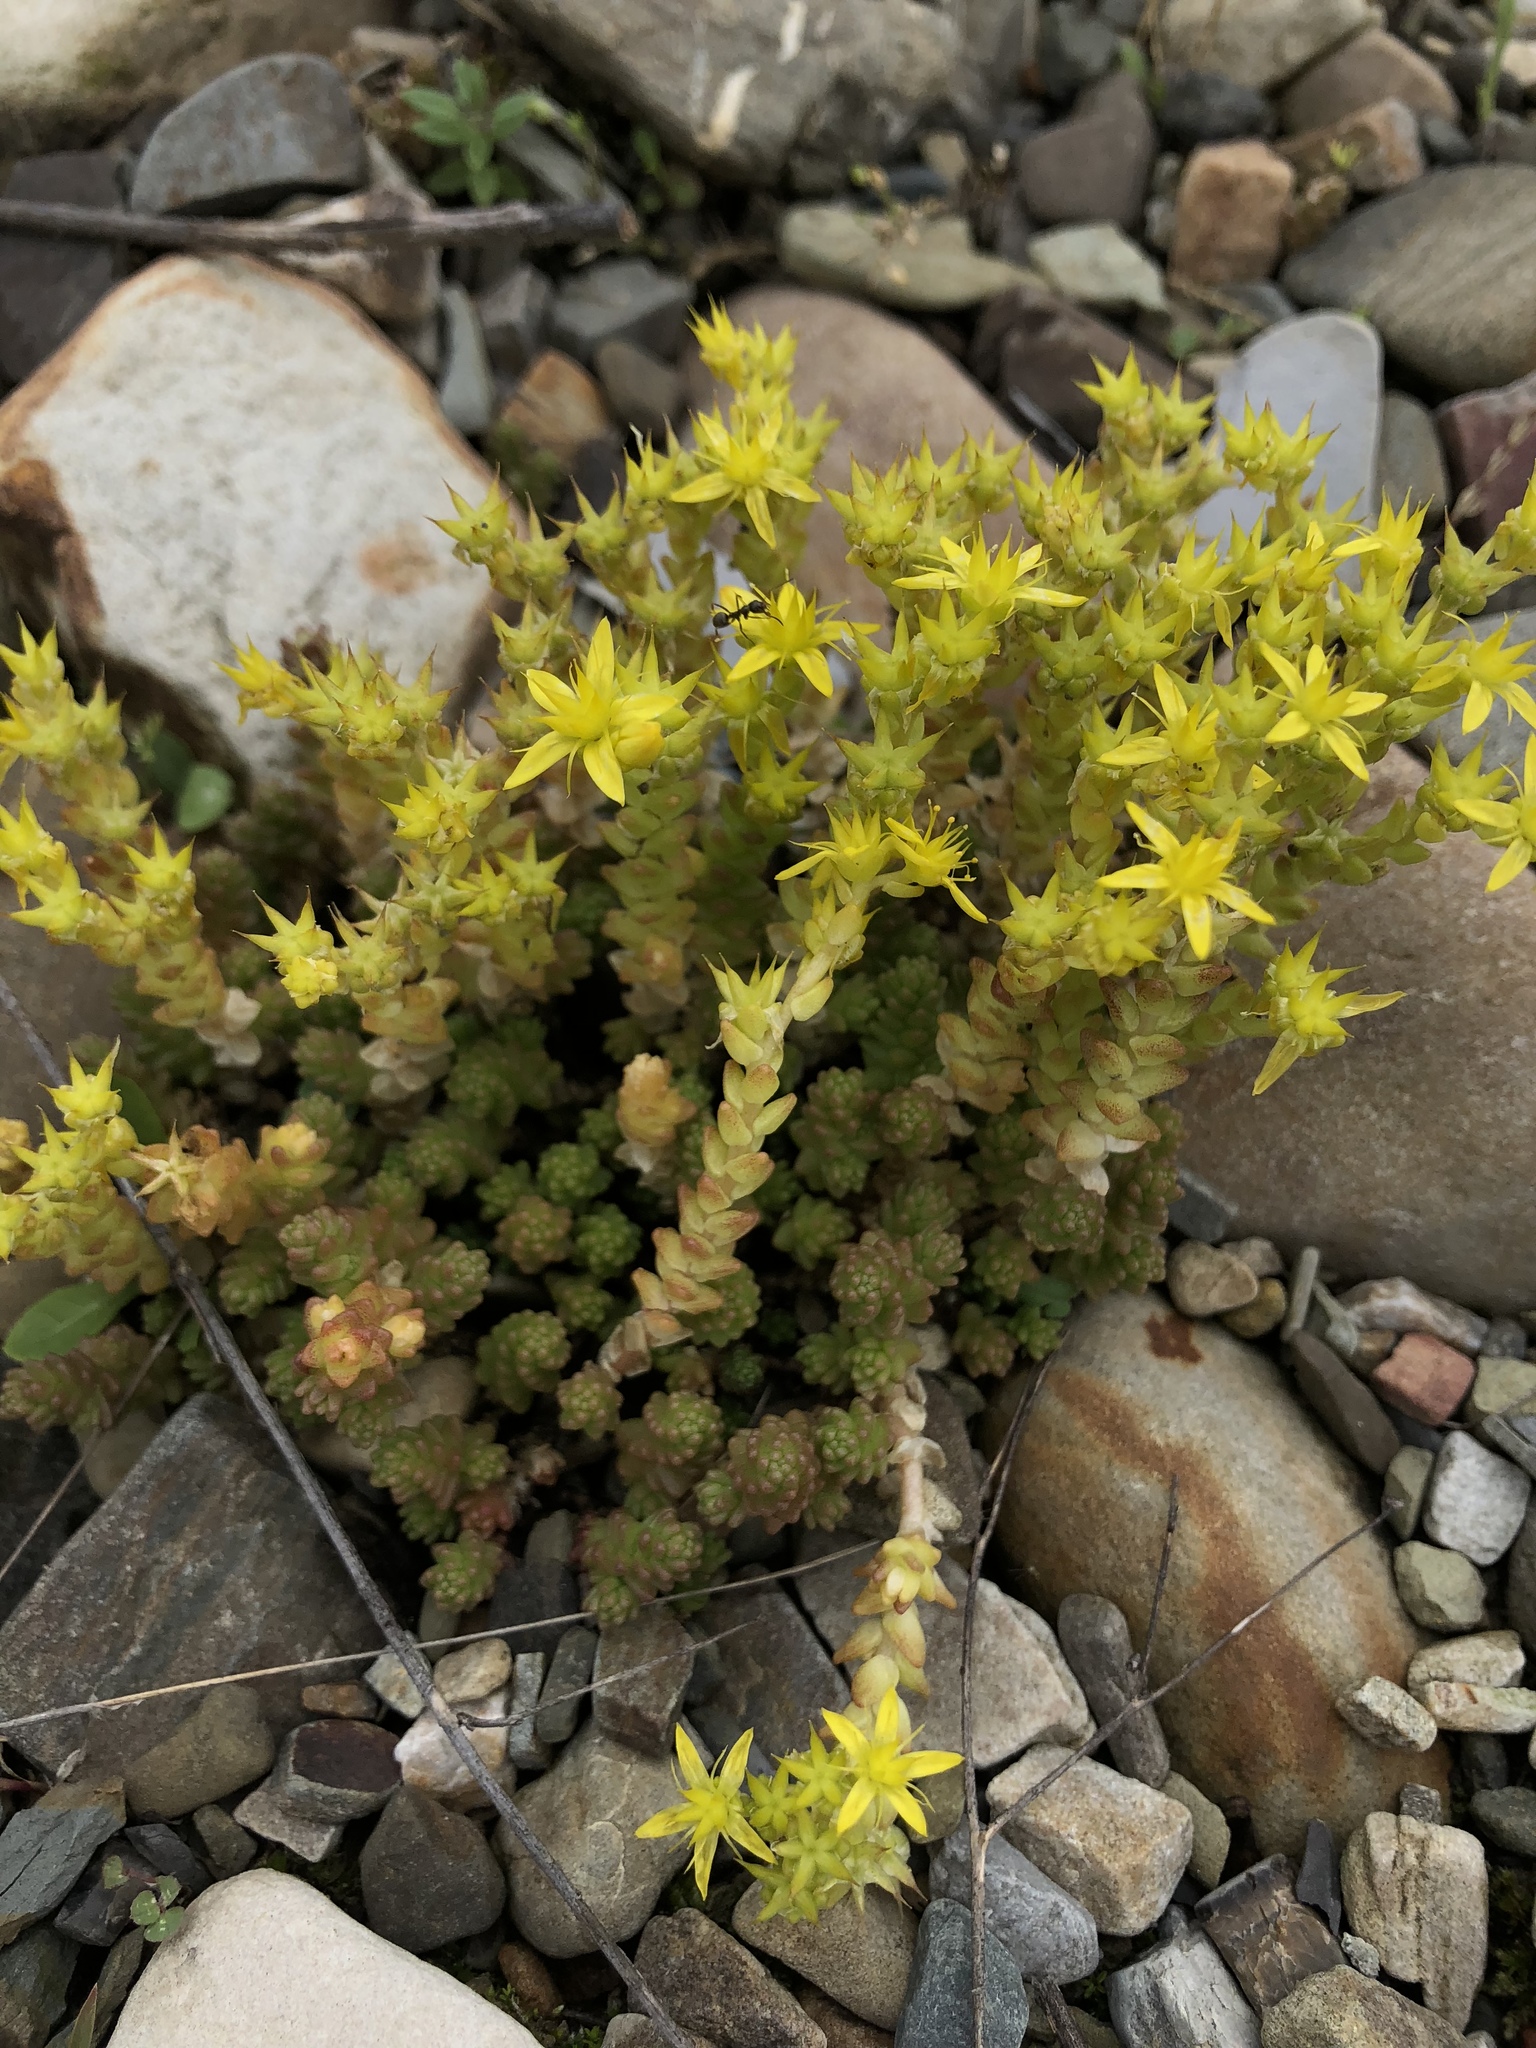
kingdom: Plantae
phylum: Tracheophyta
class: Magnoliopsida
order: Saxifragales
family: Crassulaceae
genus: Sedum
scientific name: Sedum acre
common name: Biting stonecrop
